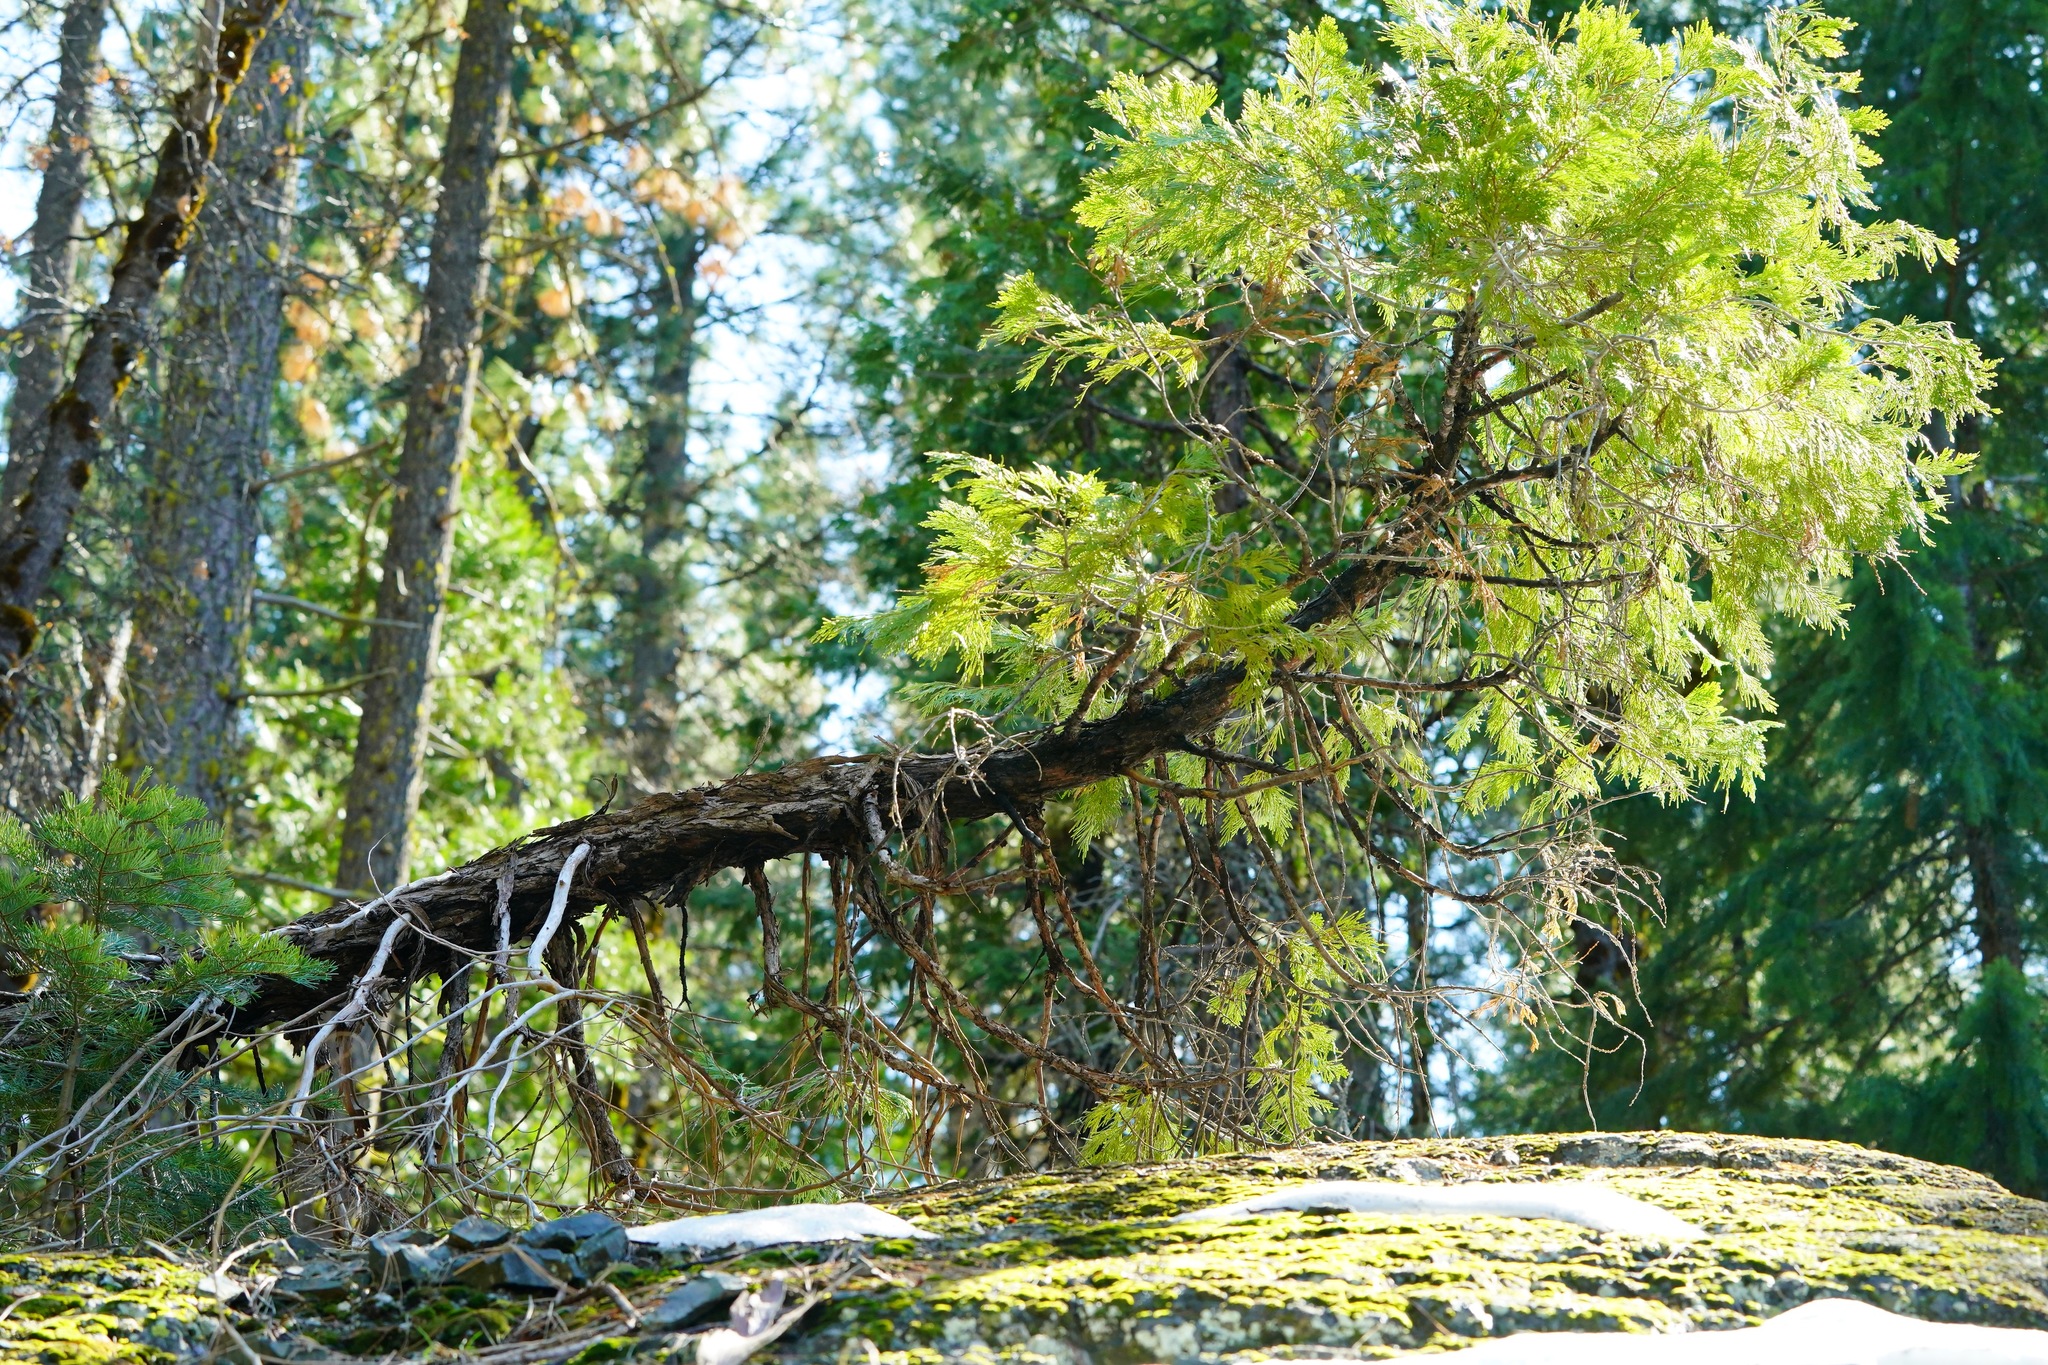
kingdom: Plantae
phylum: Tracheophyta
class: Pinopsida
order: Pinales
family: Cupressaceae
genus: Calocedrus
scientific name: Calocedrus decurrens
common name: Californian incense-cedar
